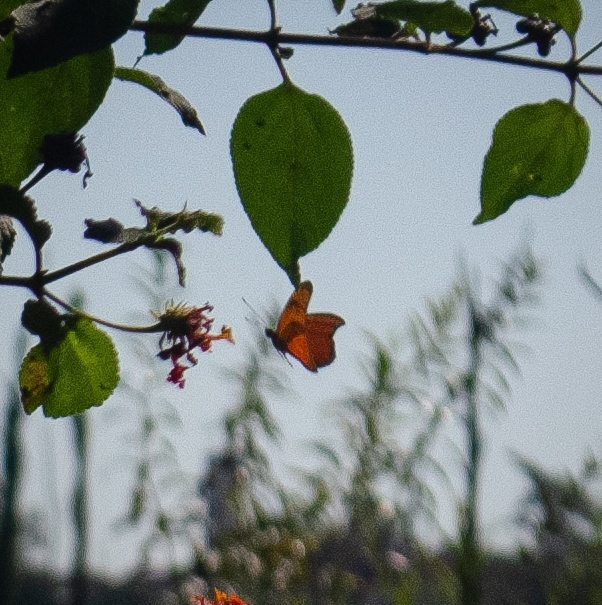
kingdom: Animalia
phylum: Arthropoda
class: Insecta
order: Lepidoptera
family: Nymphalidae
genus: Dryas
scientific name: Dryas iulia
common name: Flambeau
